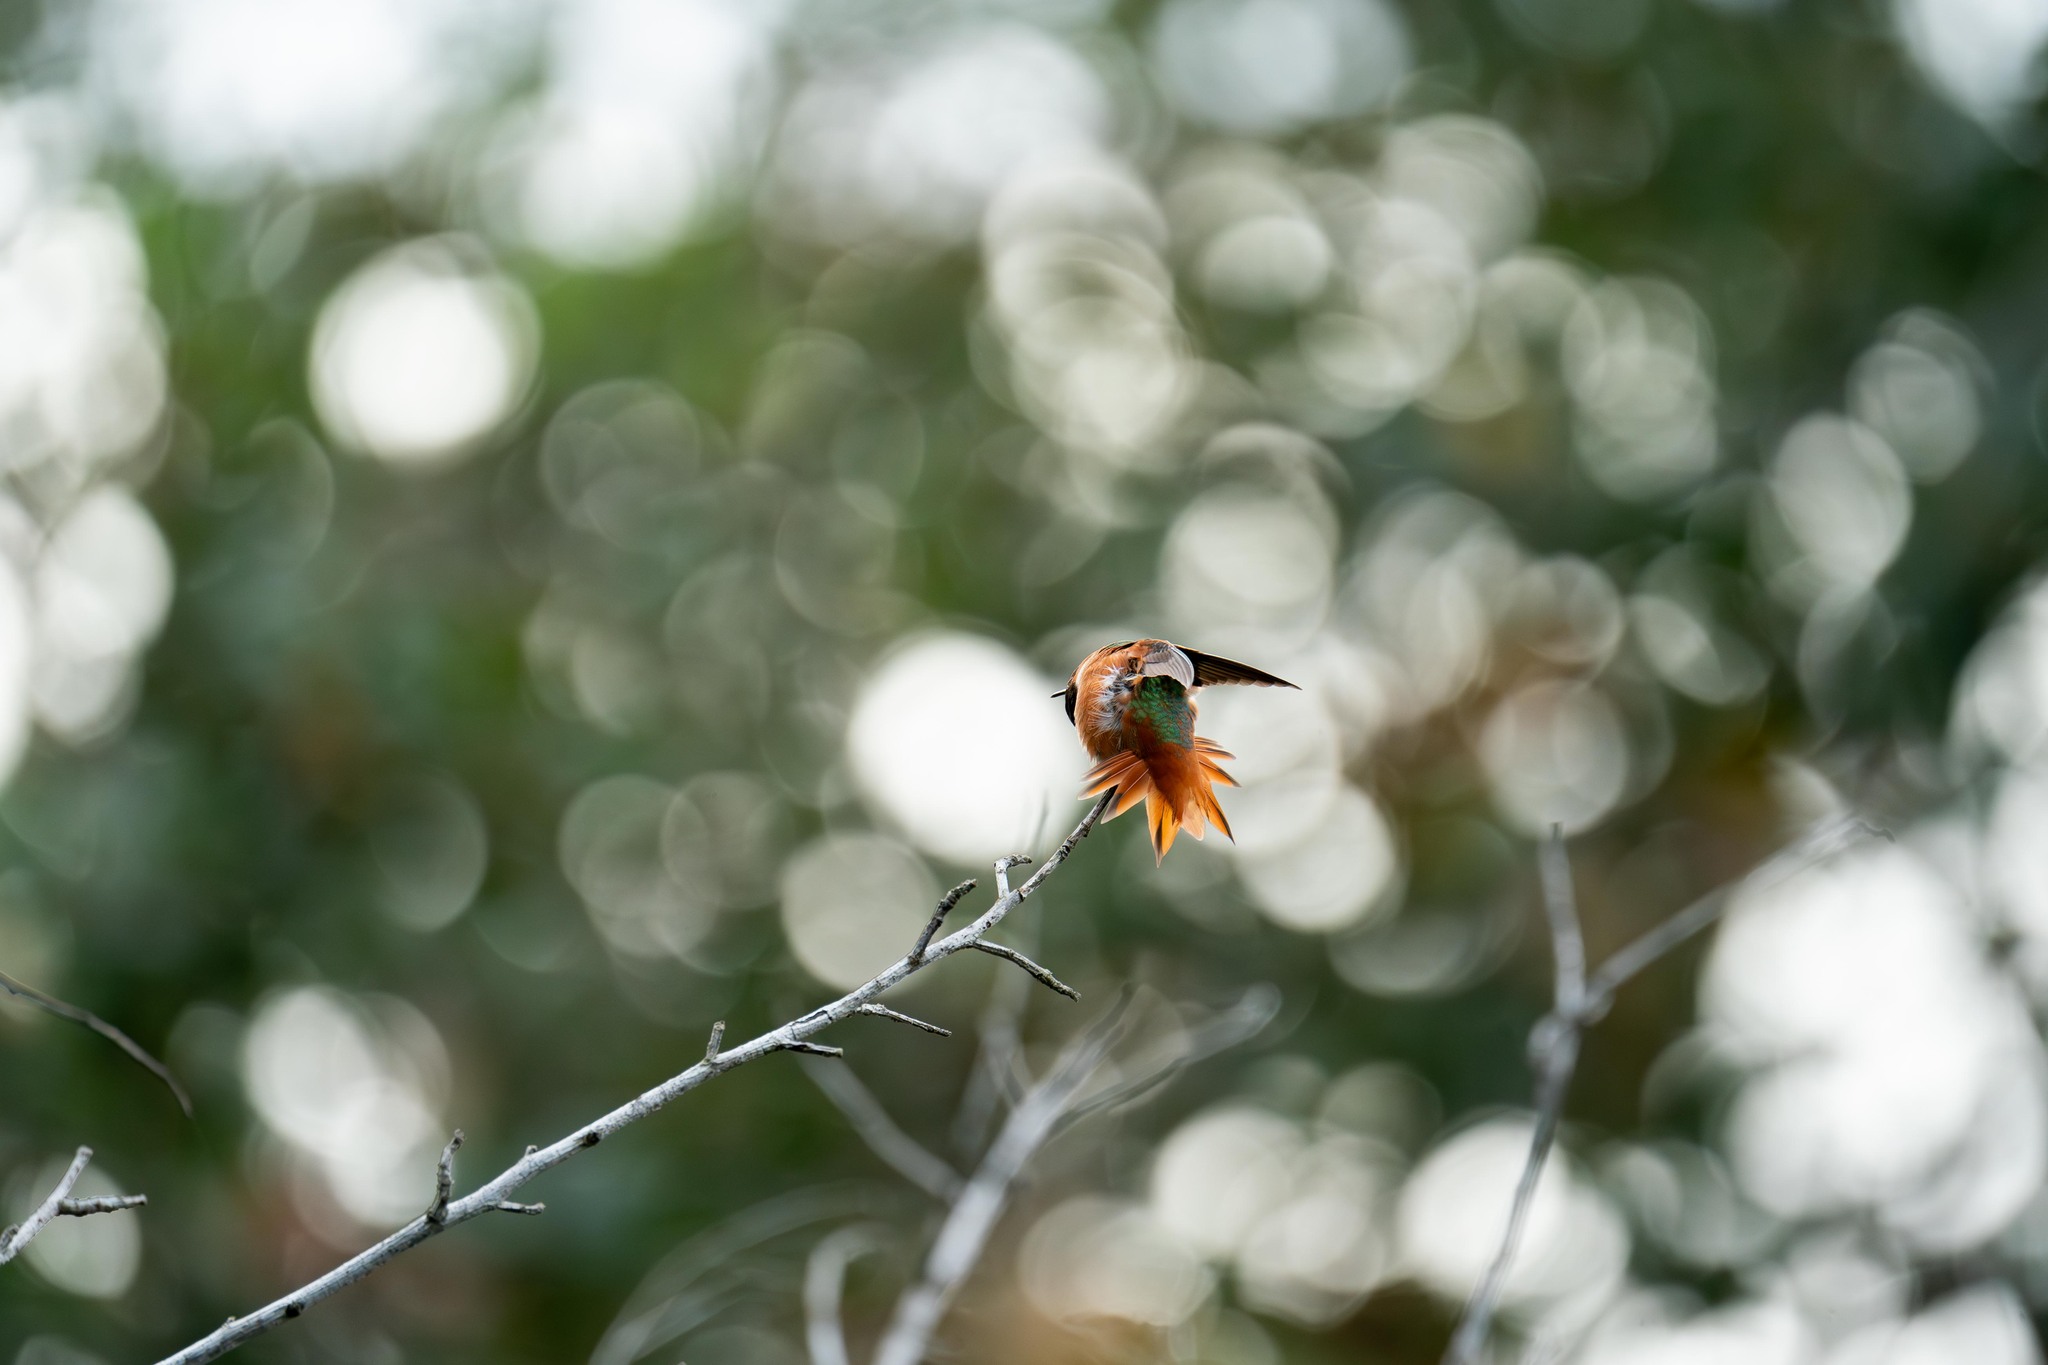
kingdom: Animalia
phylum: Chordata
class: Aves
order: Apodiformes
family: Trochilidae
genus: Selasphorus
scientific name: Selasphorus sasin
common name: Allen's hummingbird
